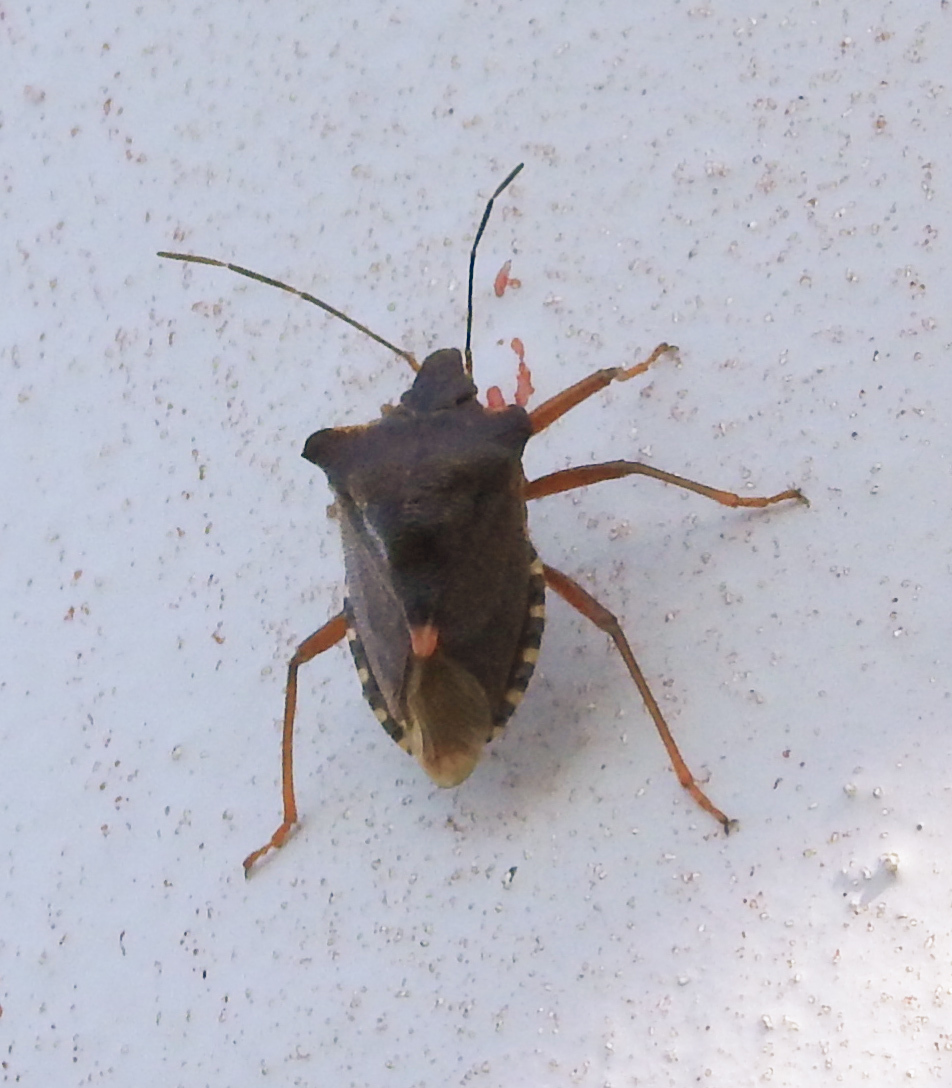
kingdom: Animalia
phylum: Arthropoda
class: Insecta
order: Hemiptera
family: Pentatomidae
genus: Pentatoma
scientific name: Pentatoma rufipes
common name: Forest bug
